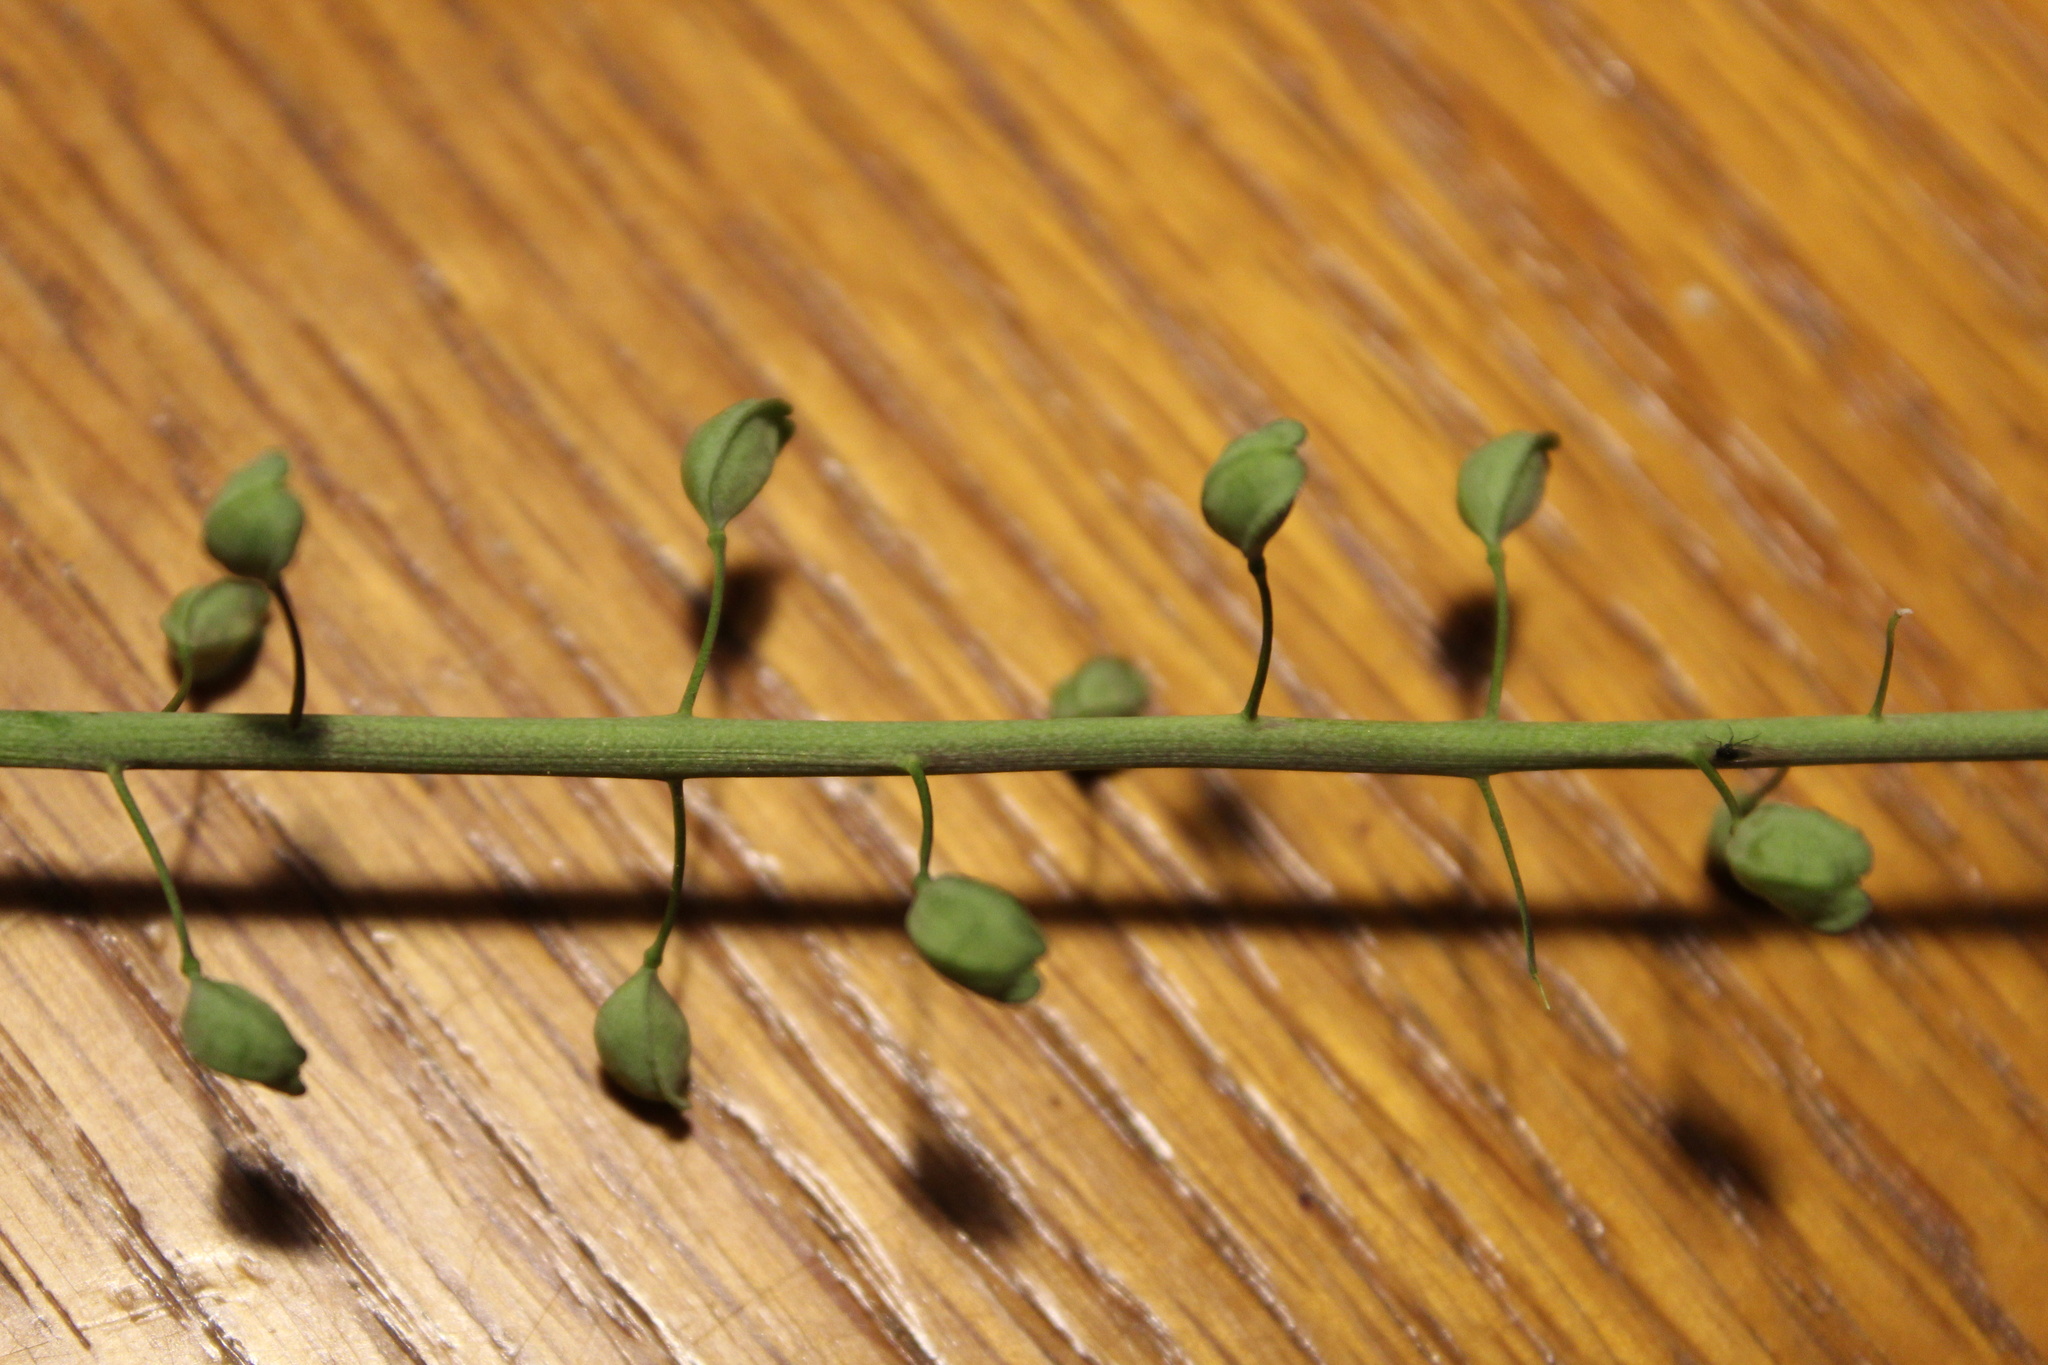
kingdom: Plantae
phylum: Tracheophyta
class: Magnoliopsida
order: Brassicales
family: Brassicaceae
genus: Mummenhoffia
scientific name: Mummenhoffia alliacea
